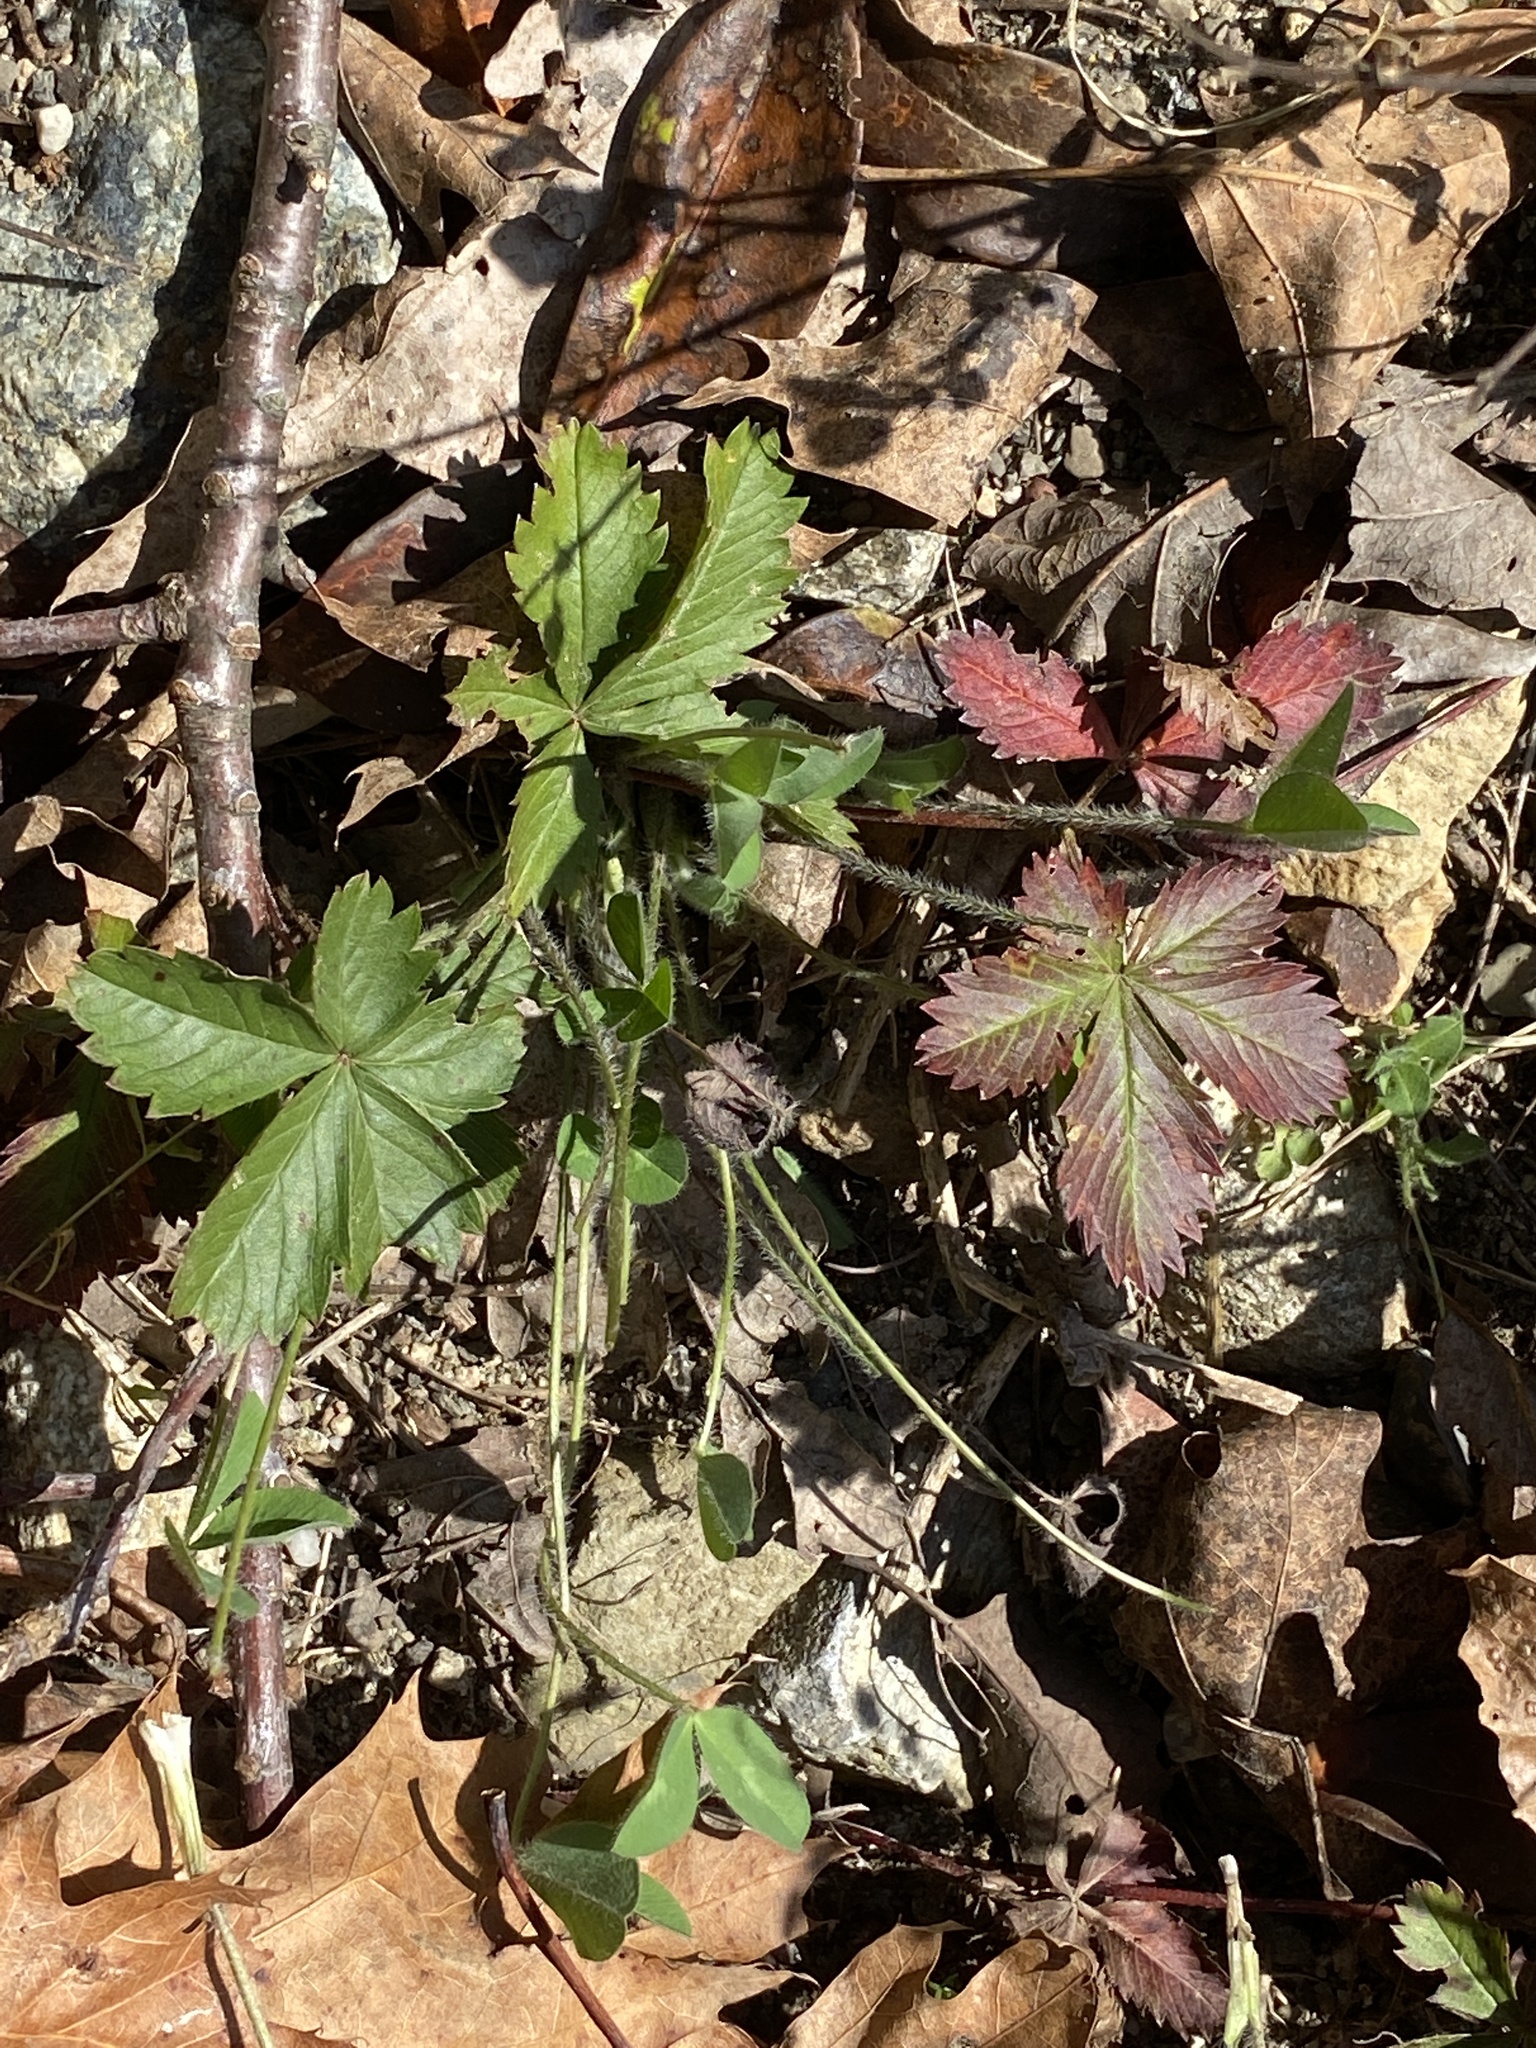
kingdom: Plantae
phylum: Tracheophyta
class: Magnoliopsida
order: Rosales
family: Rosaceae
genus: Potentilla
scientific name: Potentilla canadensis
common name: Canada cinquefoil
